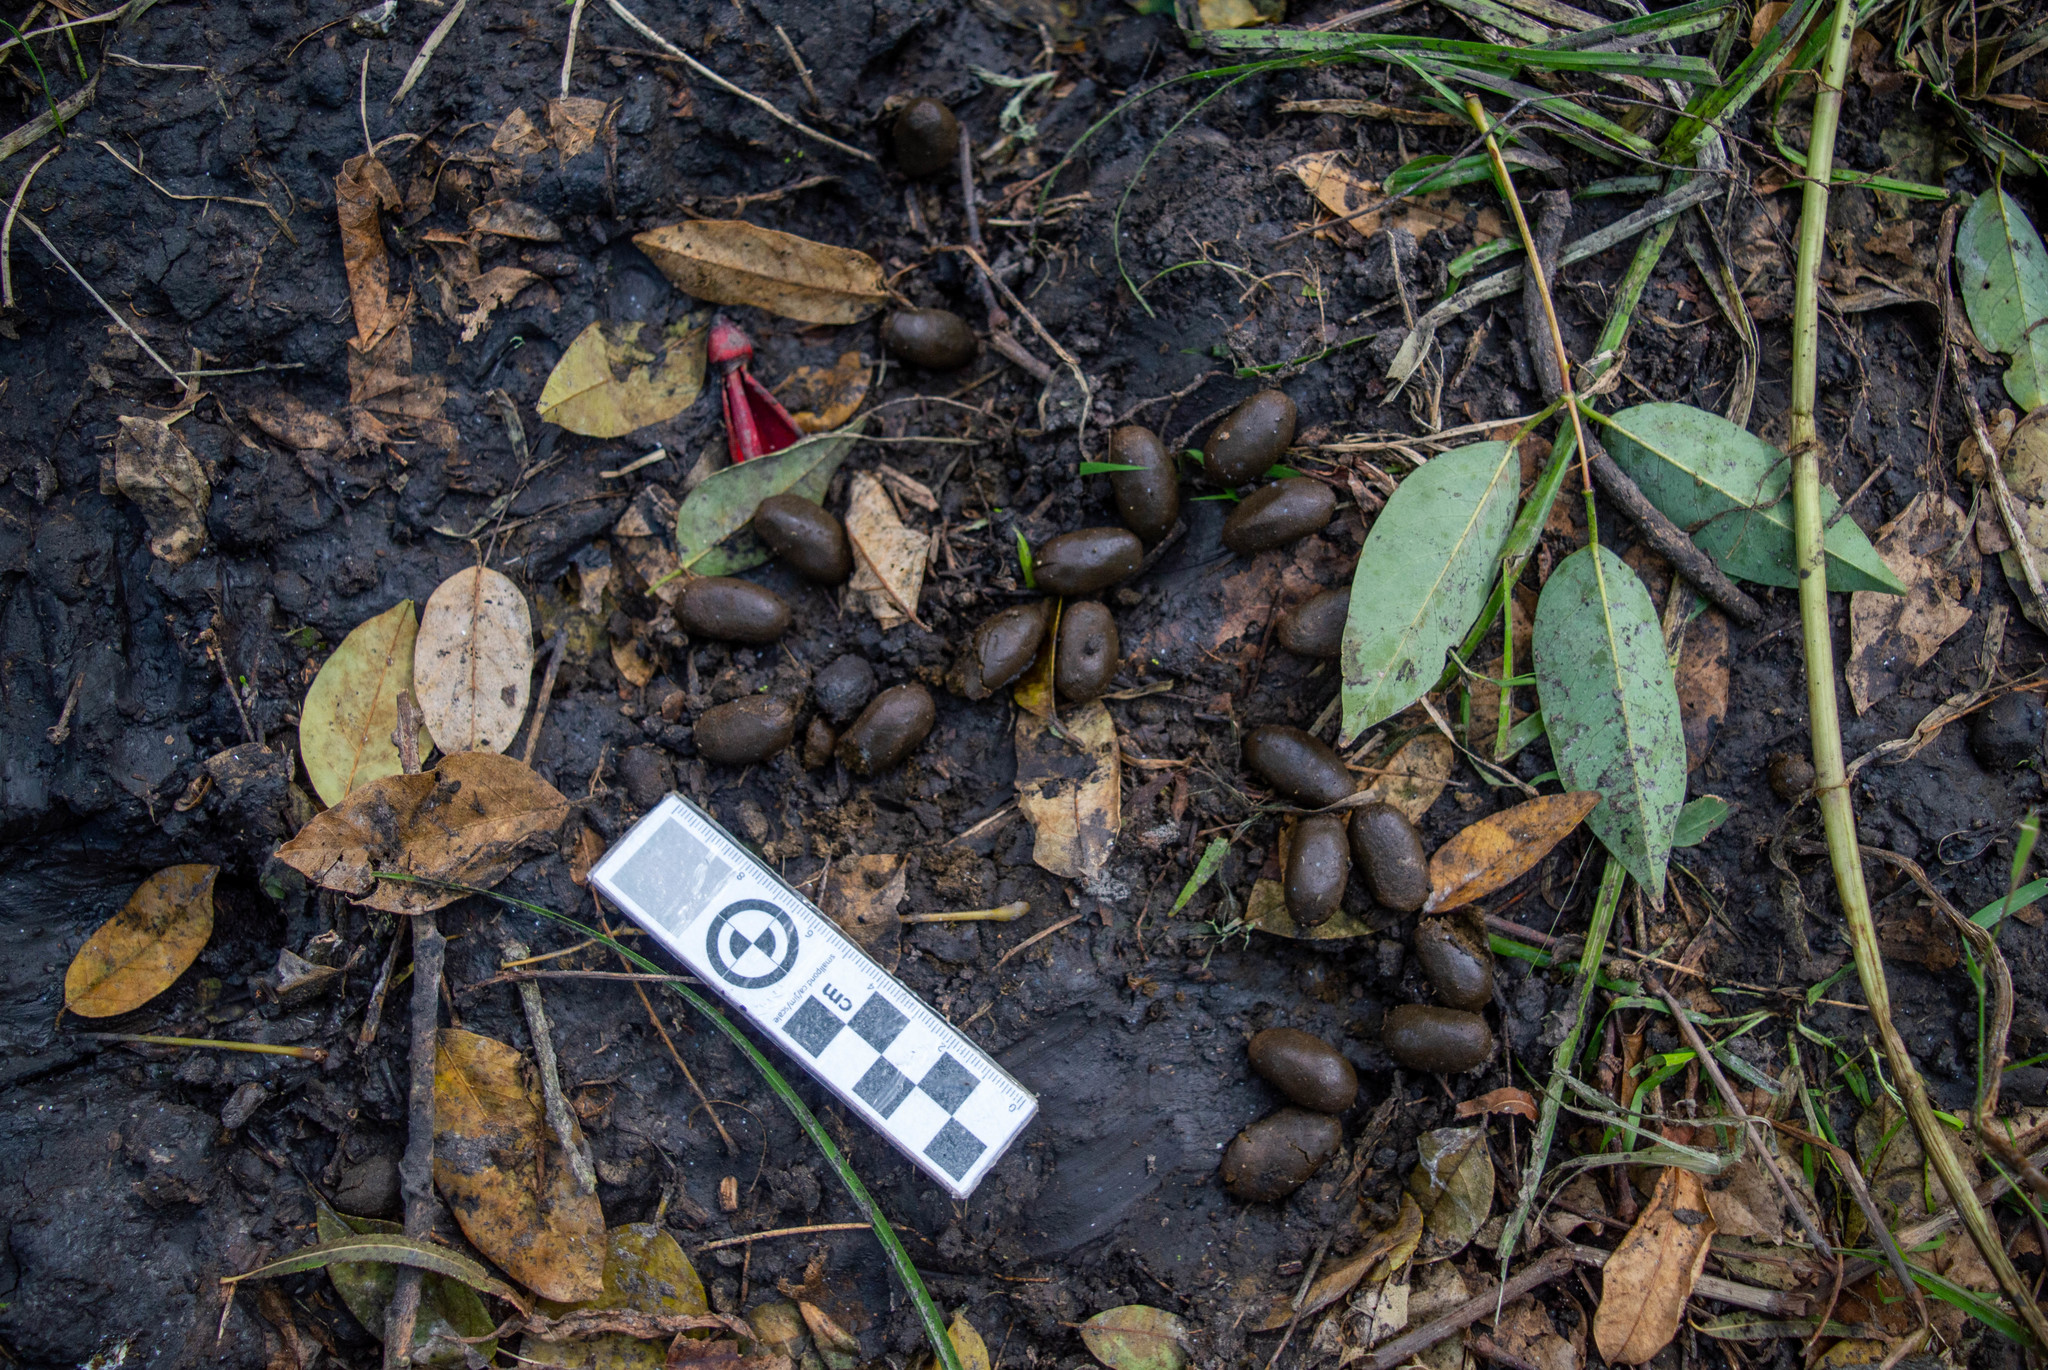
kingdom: Animalia
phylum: Chordata
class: Mammalia
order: Rodentia
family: Caviidae
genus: Hydrochoerus
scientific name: Hydrochoerus hydrochaeris
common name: Capybara
